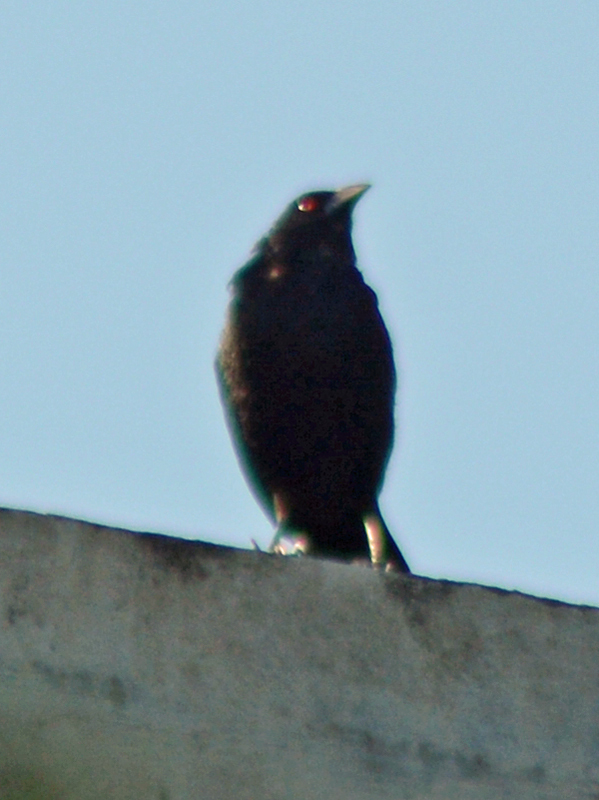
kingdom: Animalia
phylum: Chordata
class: Aves
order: Passeriformes
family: Icteridae
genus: Molothrus
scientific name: Molothrus aeneus
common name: Bronzed cowbird
